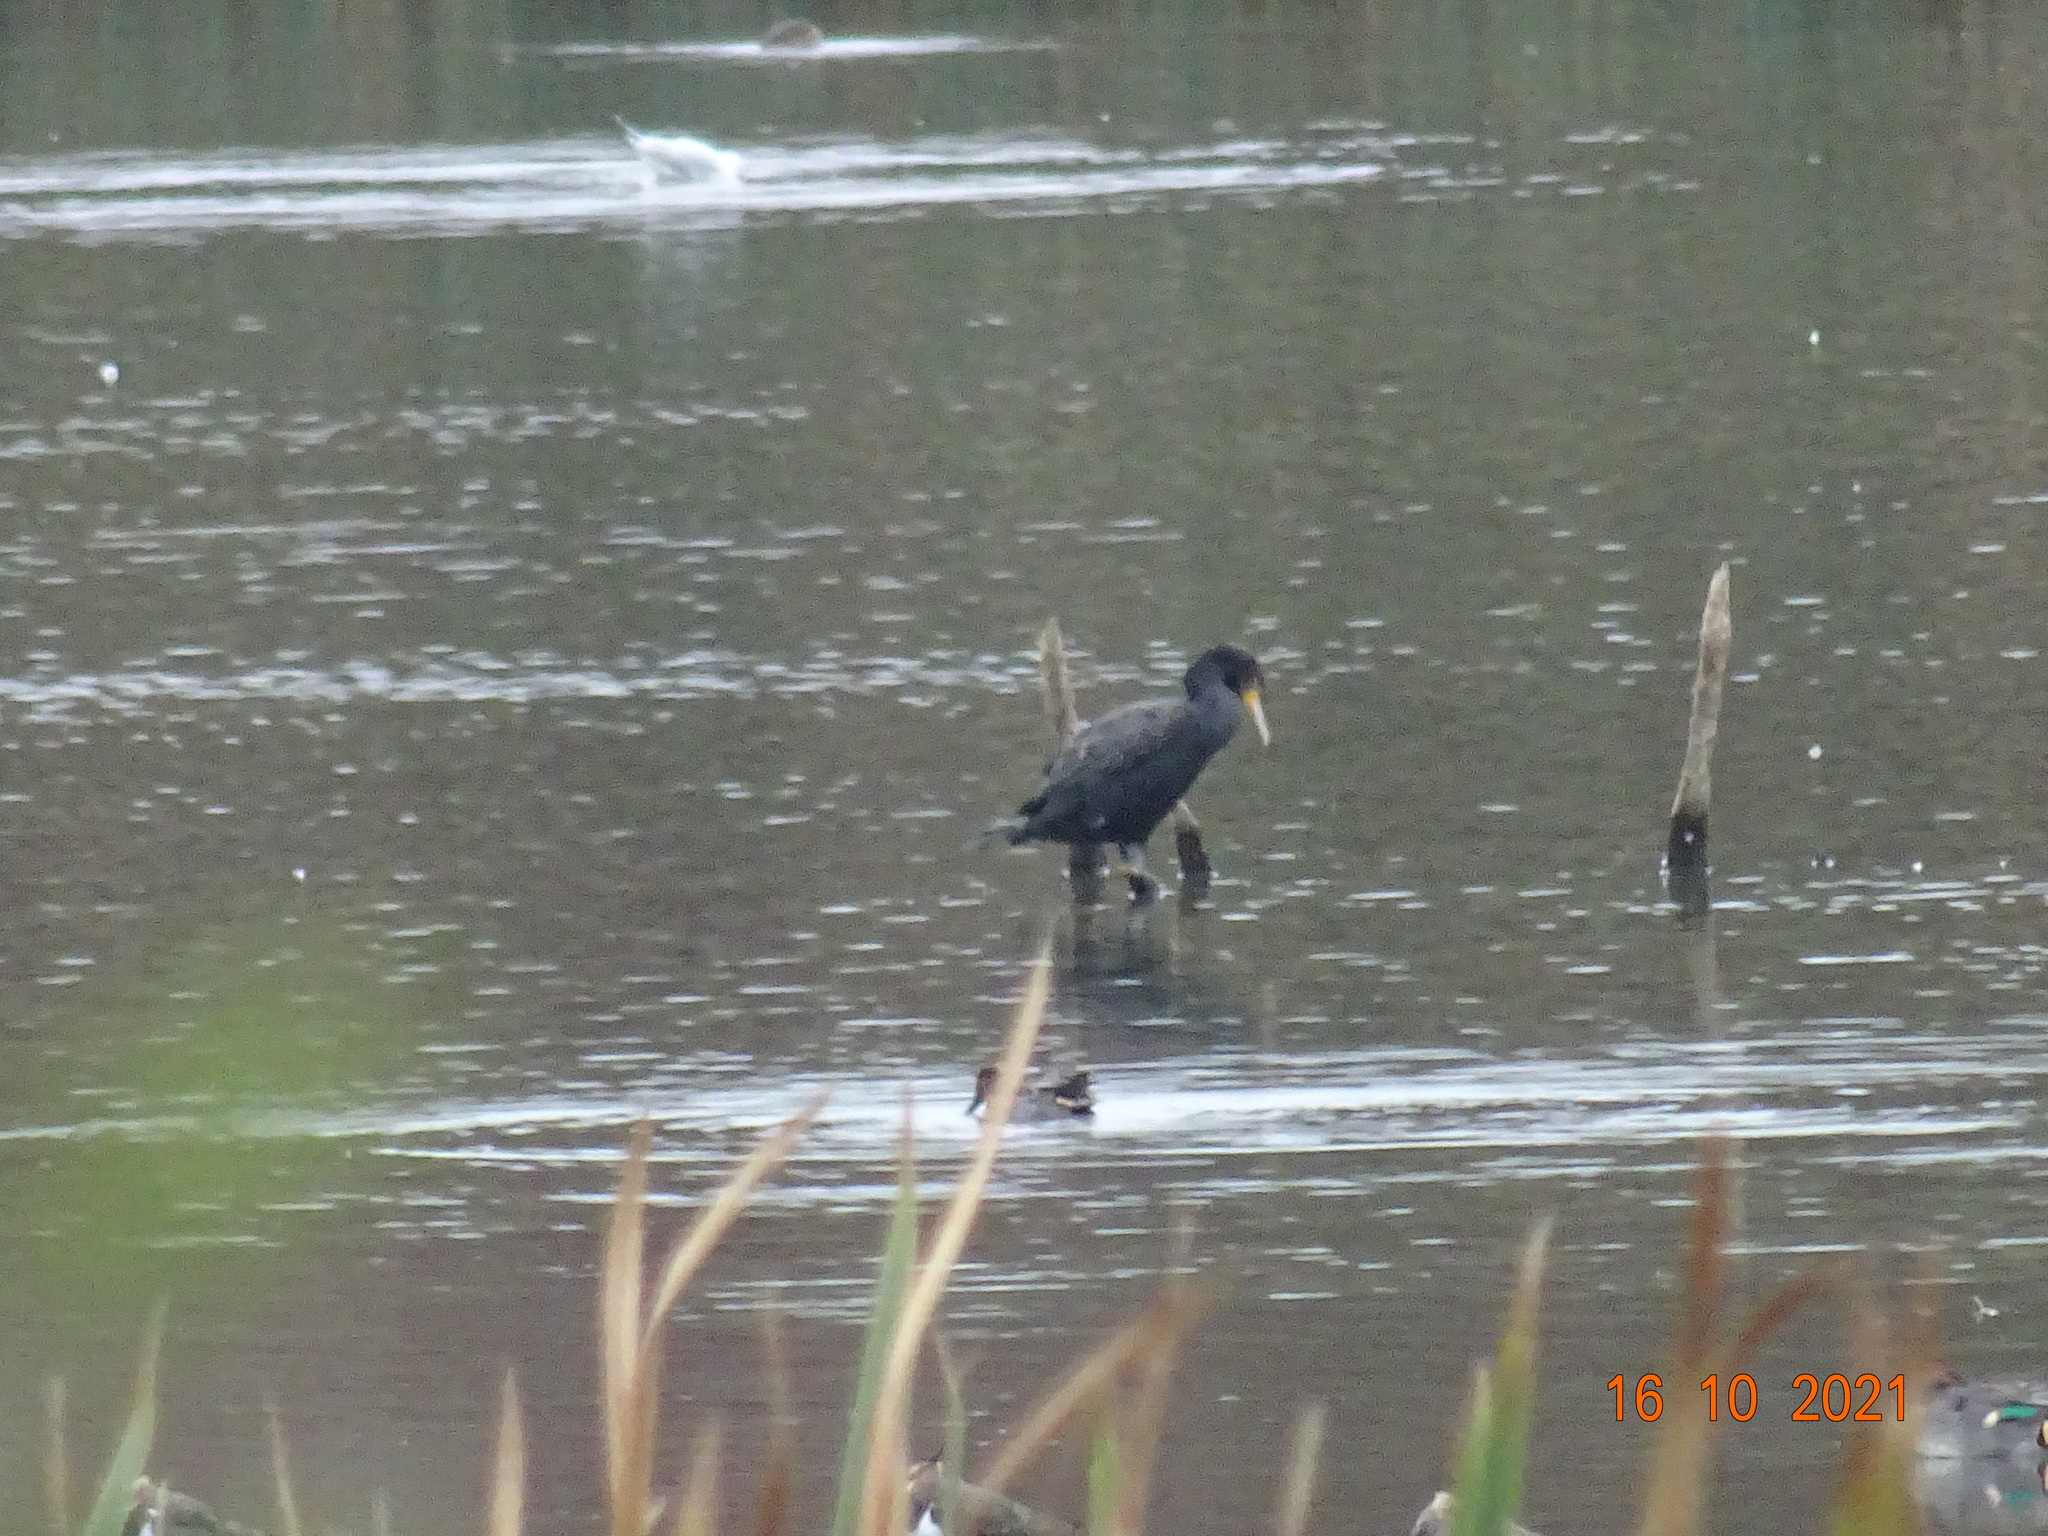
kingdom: Animalia
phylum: Chordata
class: Aves
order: Suliformes
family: Phalacrocoracidae
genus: Phalacrocorax
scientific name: Phalacrocorax carbo
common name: Great cormorant
